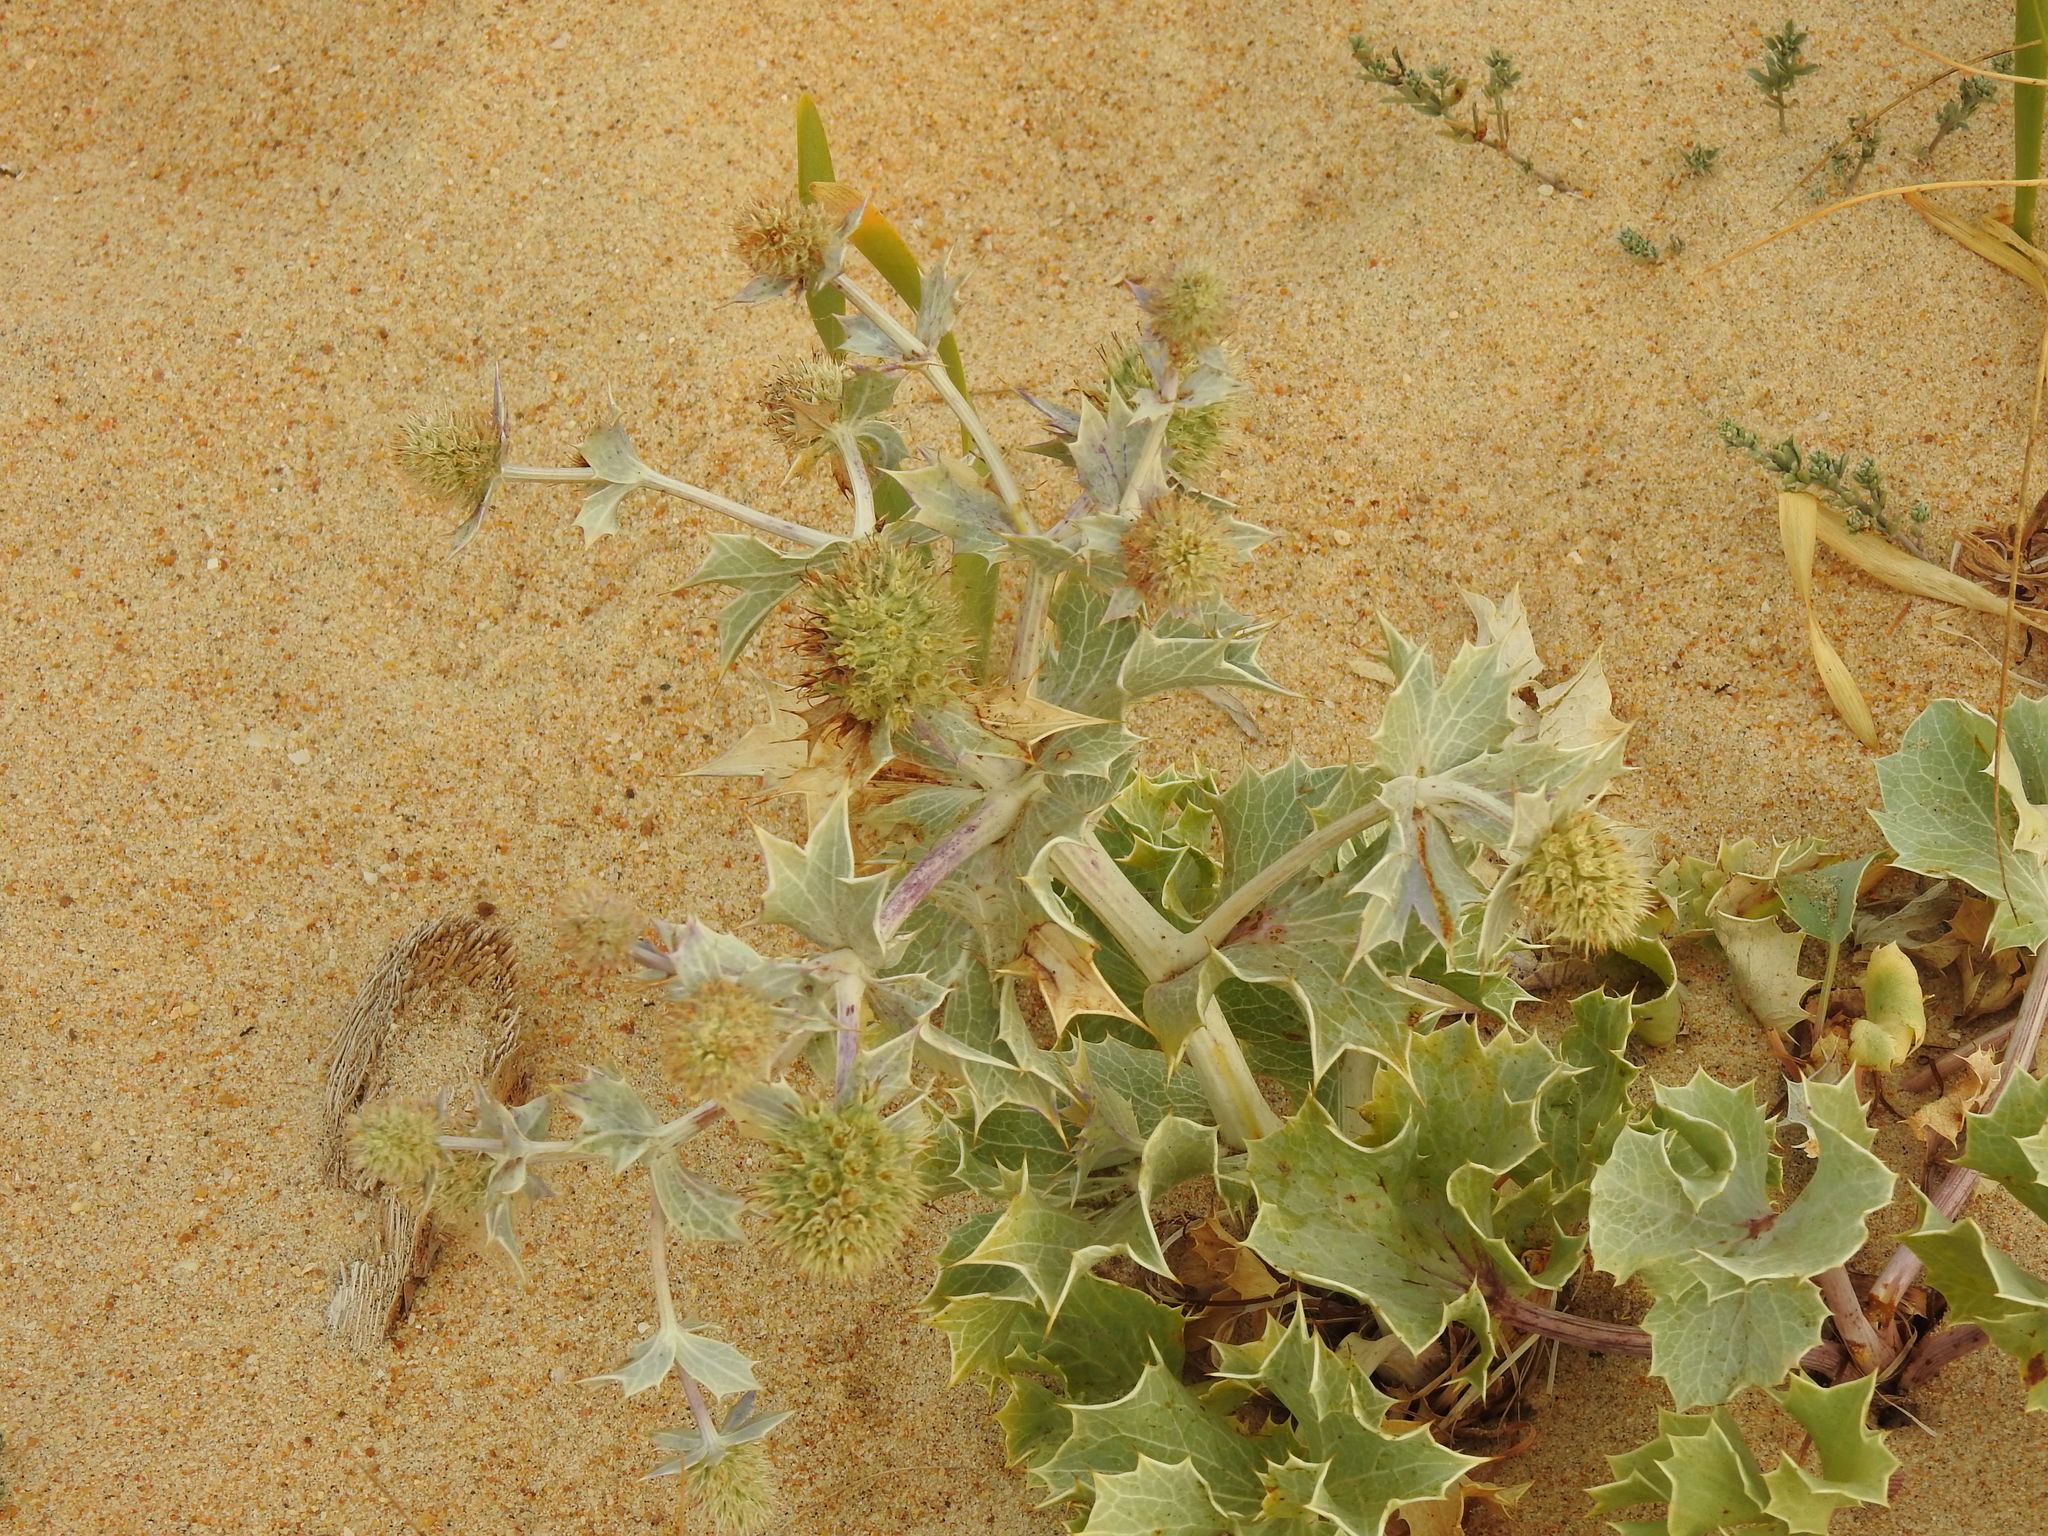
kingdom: Plantae
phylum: Tracheophyta
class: Magnoliopsida
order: Apiales
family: Apiaceae
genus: Eryngium
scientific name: Eryngium maritimum
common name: Sea-holly
